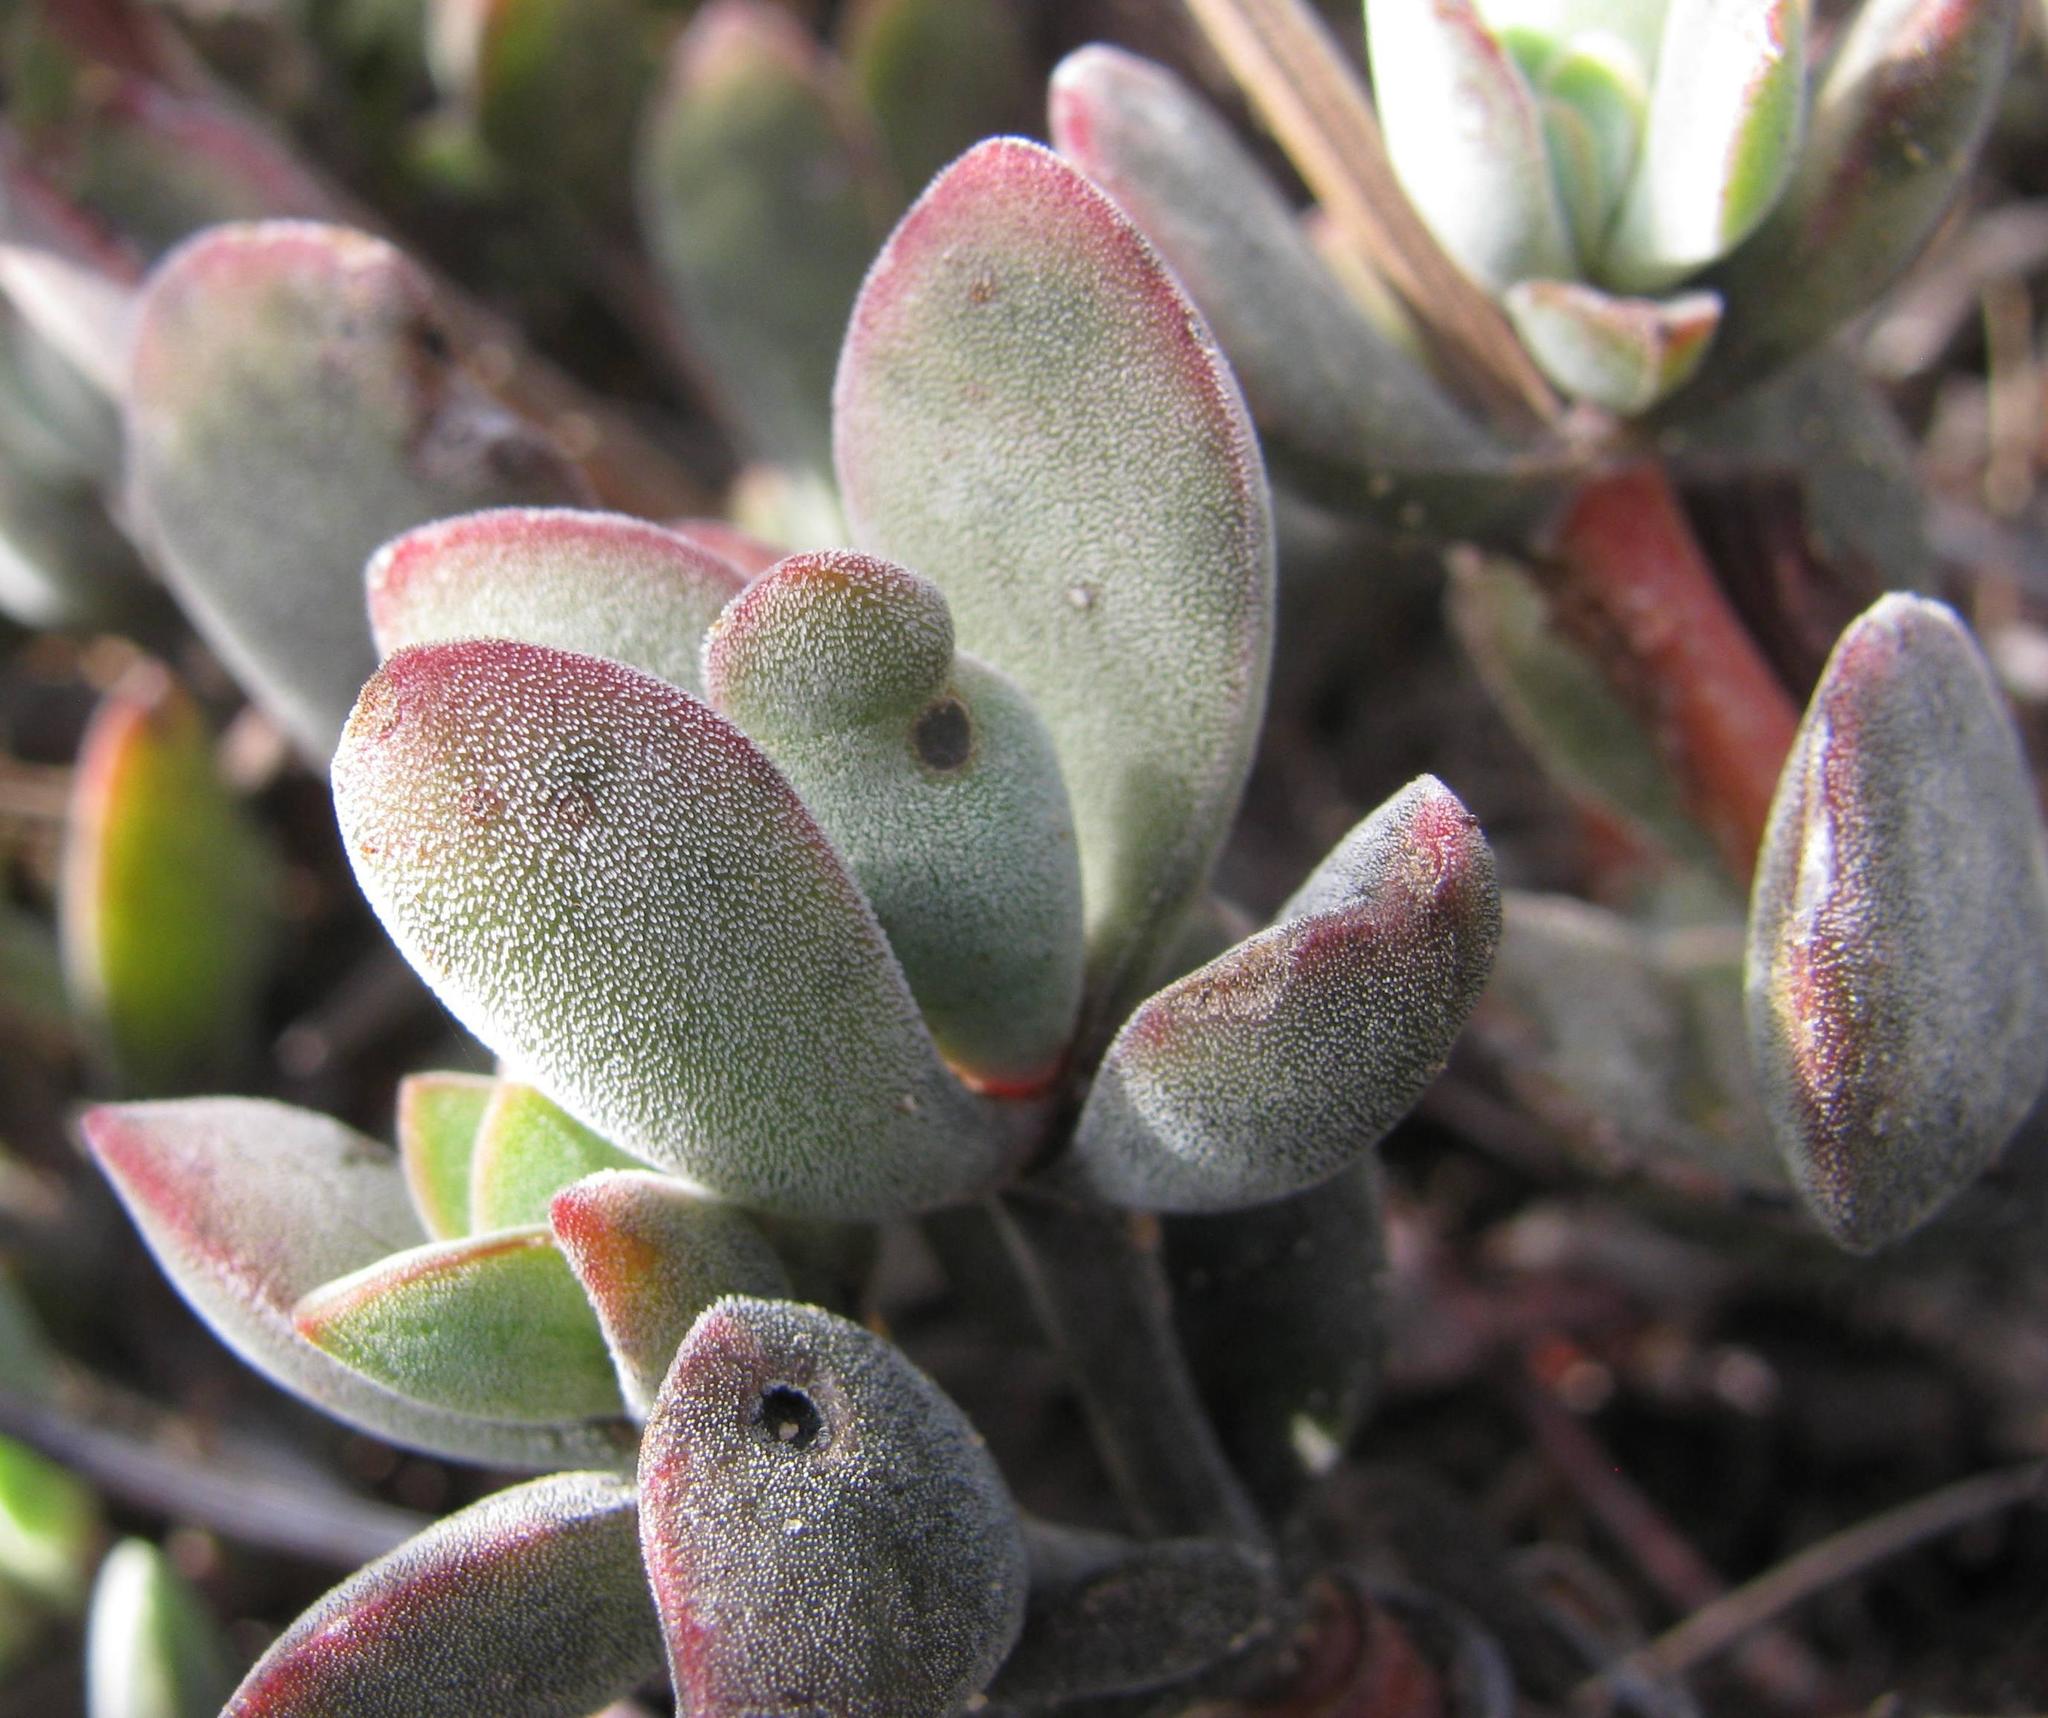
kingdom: Plantae
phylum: Tracheophyta
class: Magnoliopsida
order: Saxifragales
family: Crassulaceae
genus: Crassula
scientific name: Crassula atropurpurea
